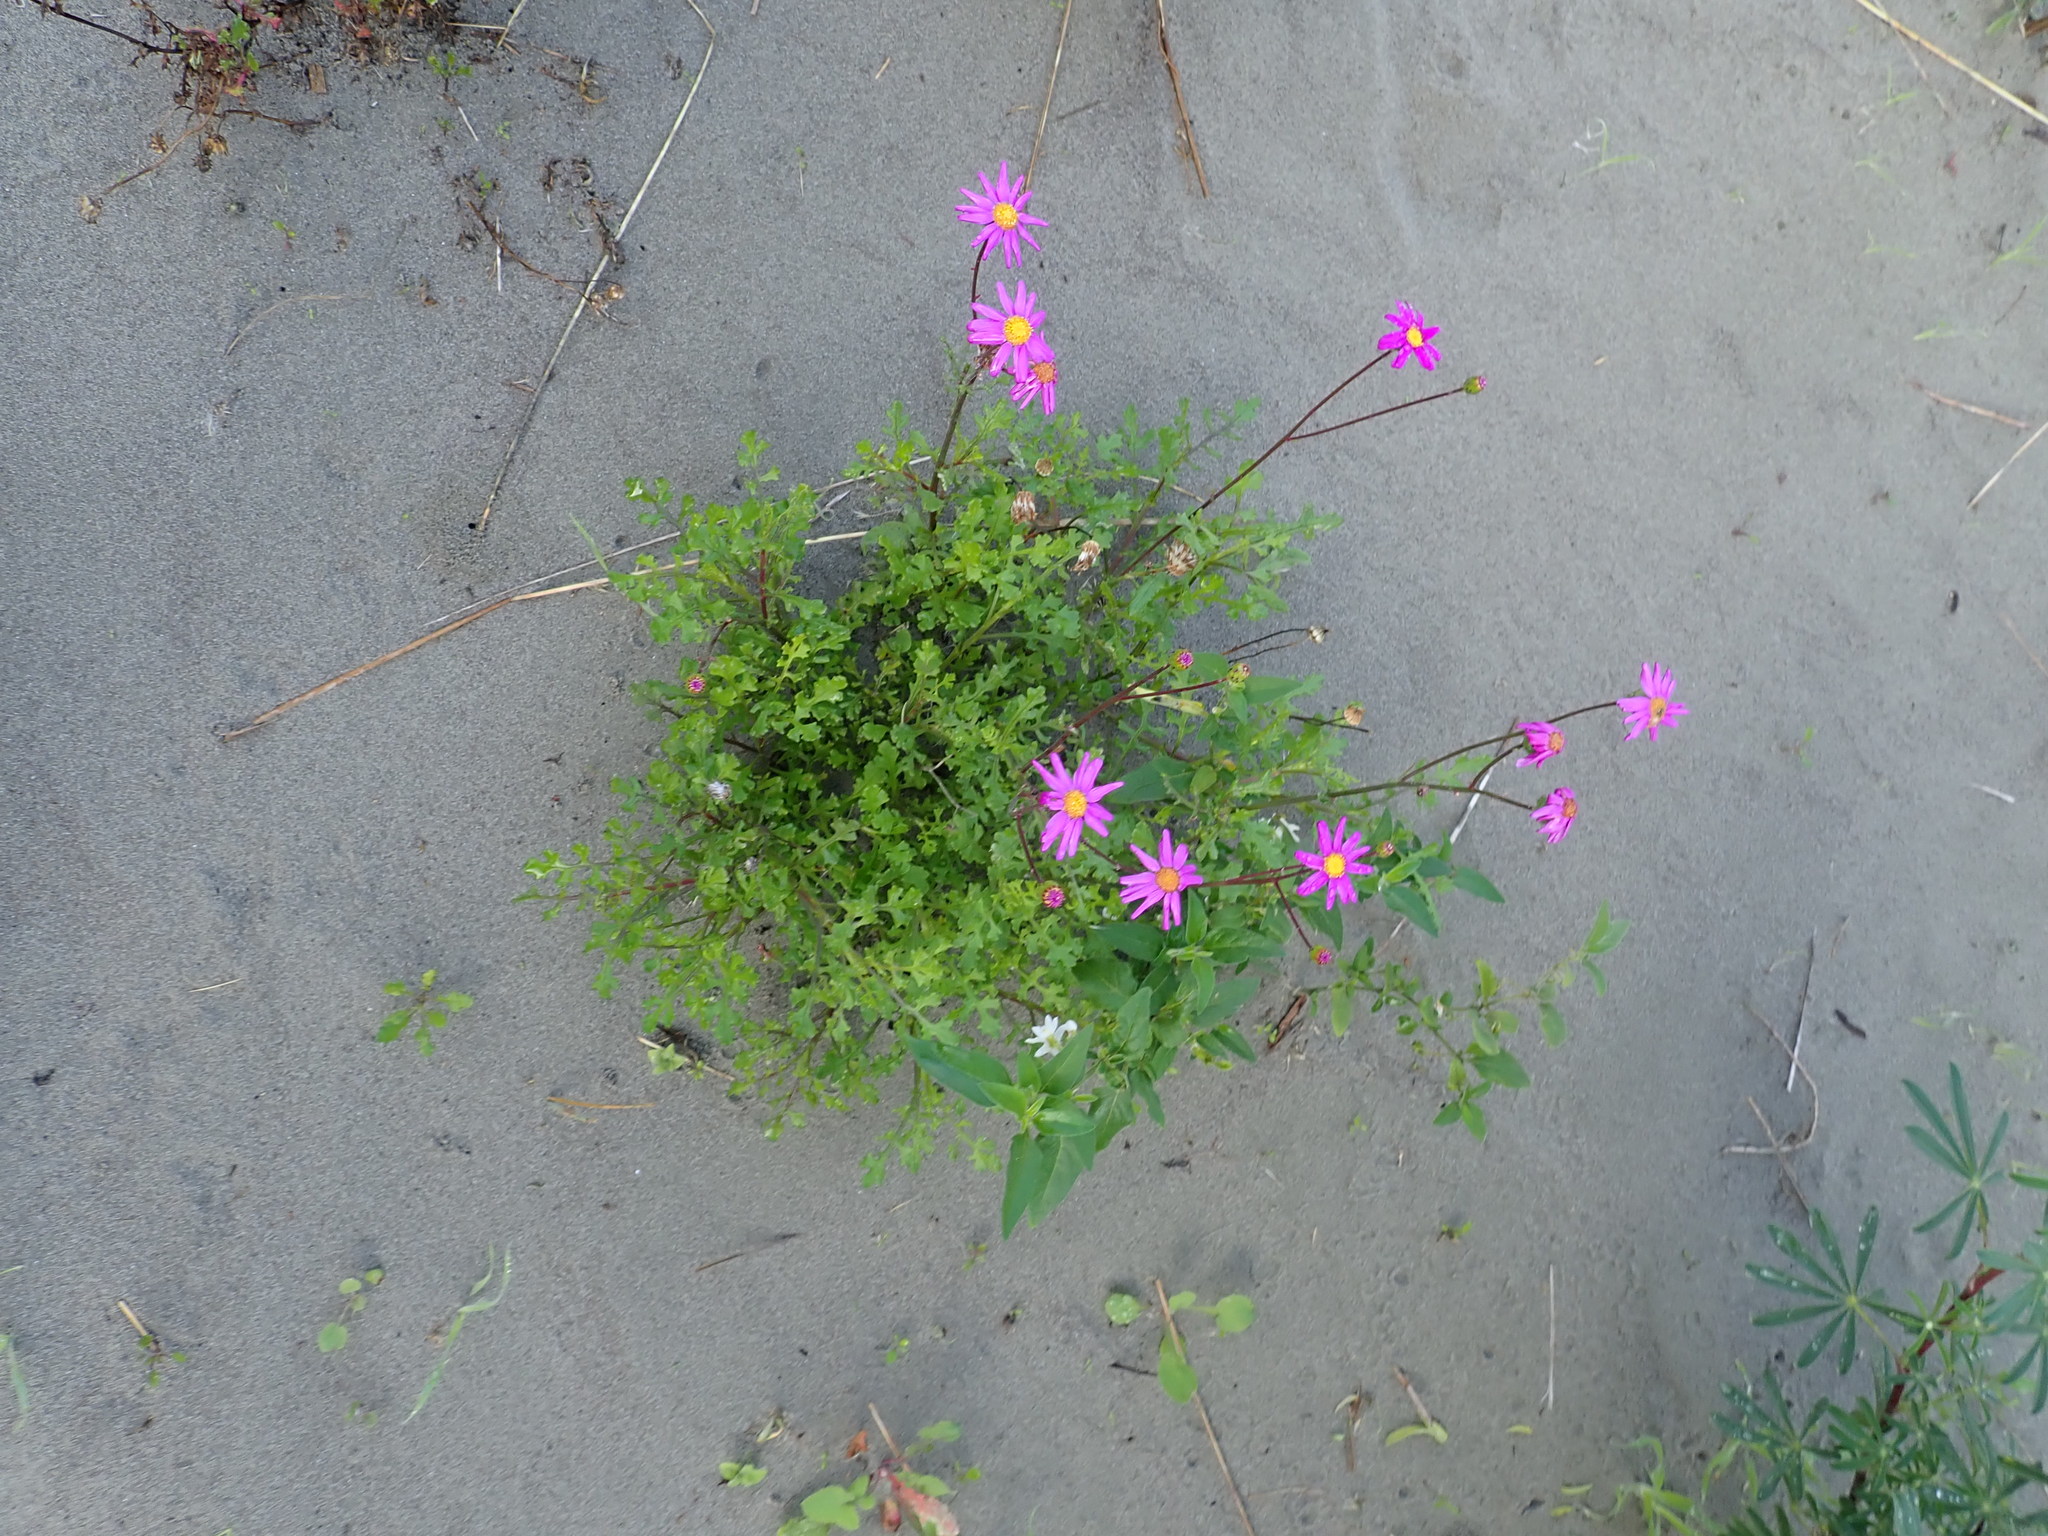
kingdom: Plantae
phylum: Tracheophyta
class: Magnoliopsida
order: Asterales
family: Asteraceae
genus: Senecio
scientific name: Senecio elegans
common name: Purple groundsel
